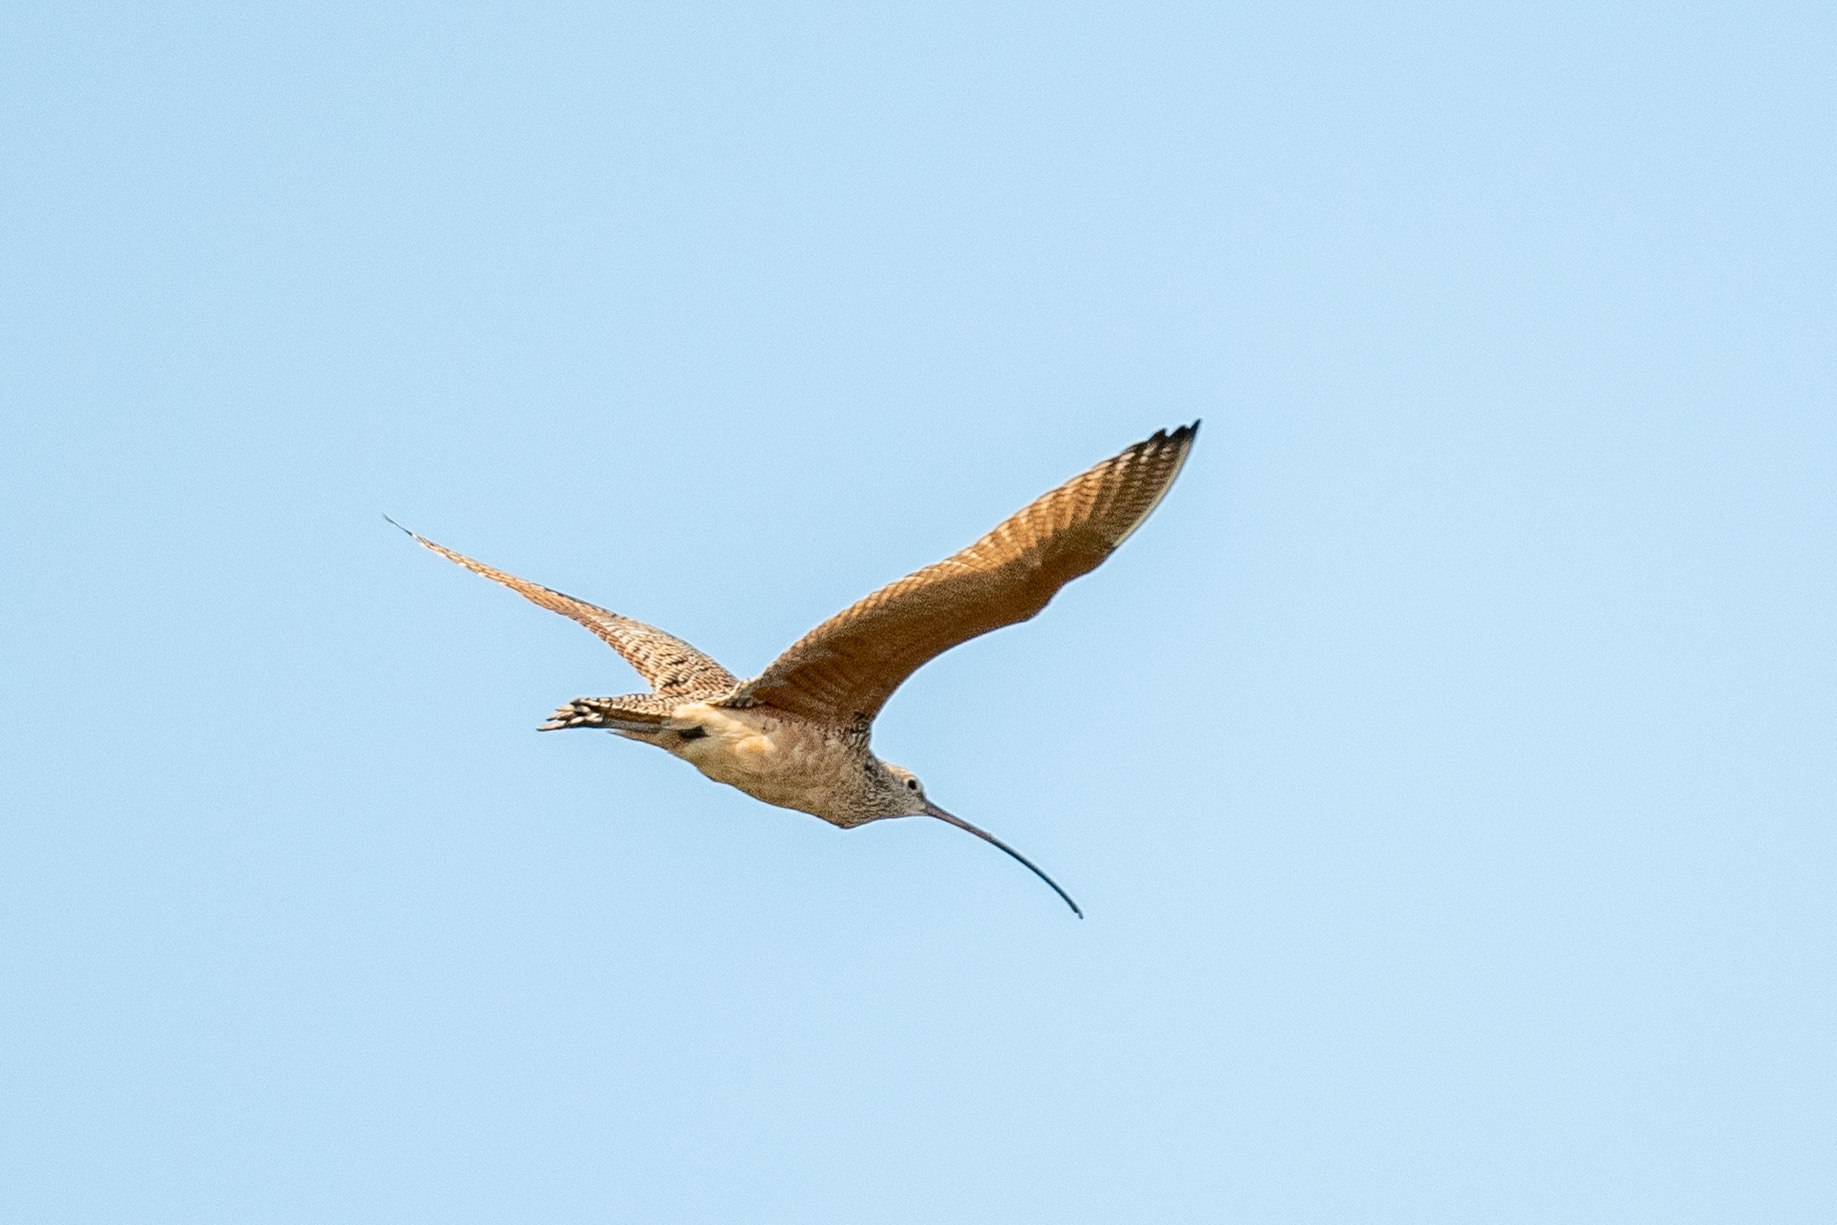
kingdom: Animalia
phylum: Chordata
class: Aves
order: Charadriiformes
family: Scolopacidae
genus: Numenius
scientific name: Numenius americanus
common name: Long-billed curlew
